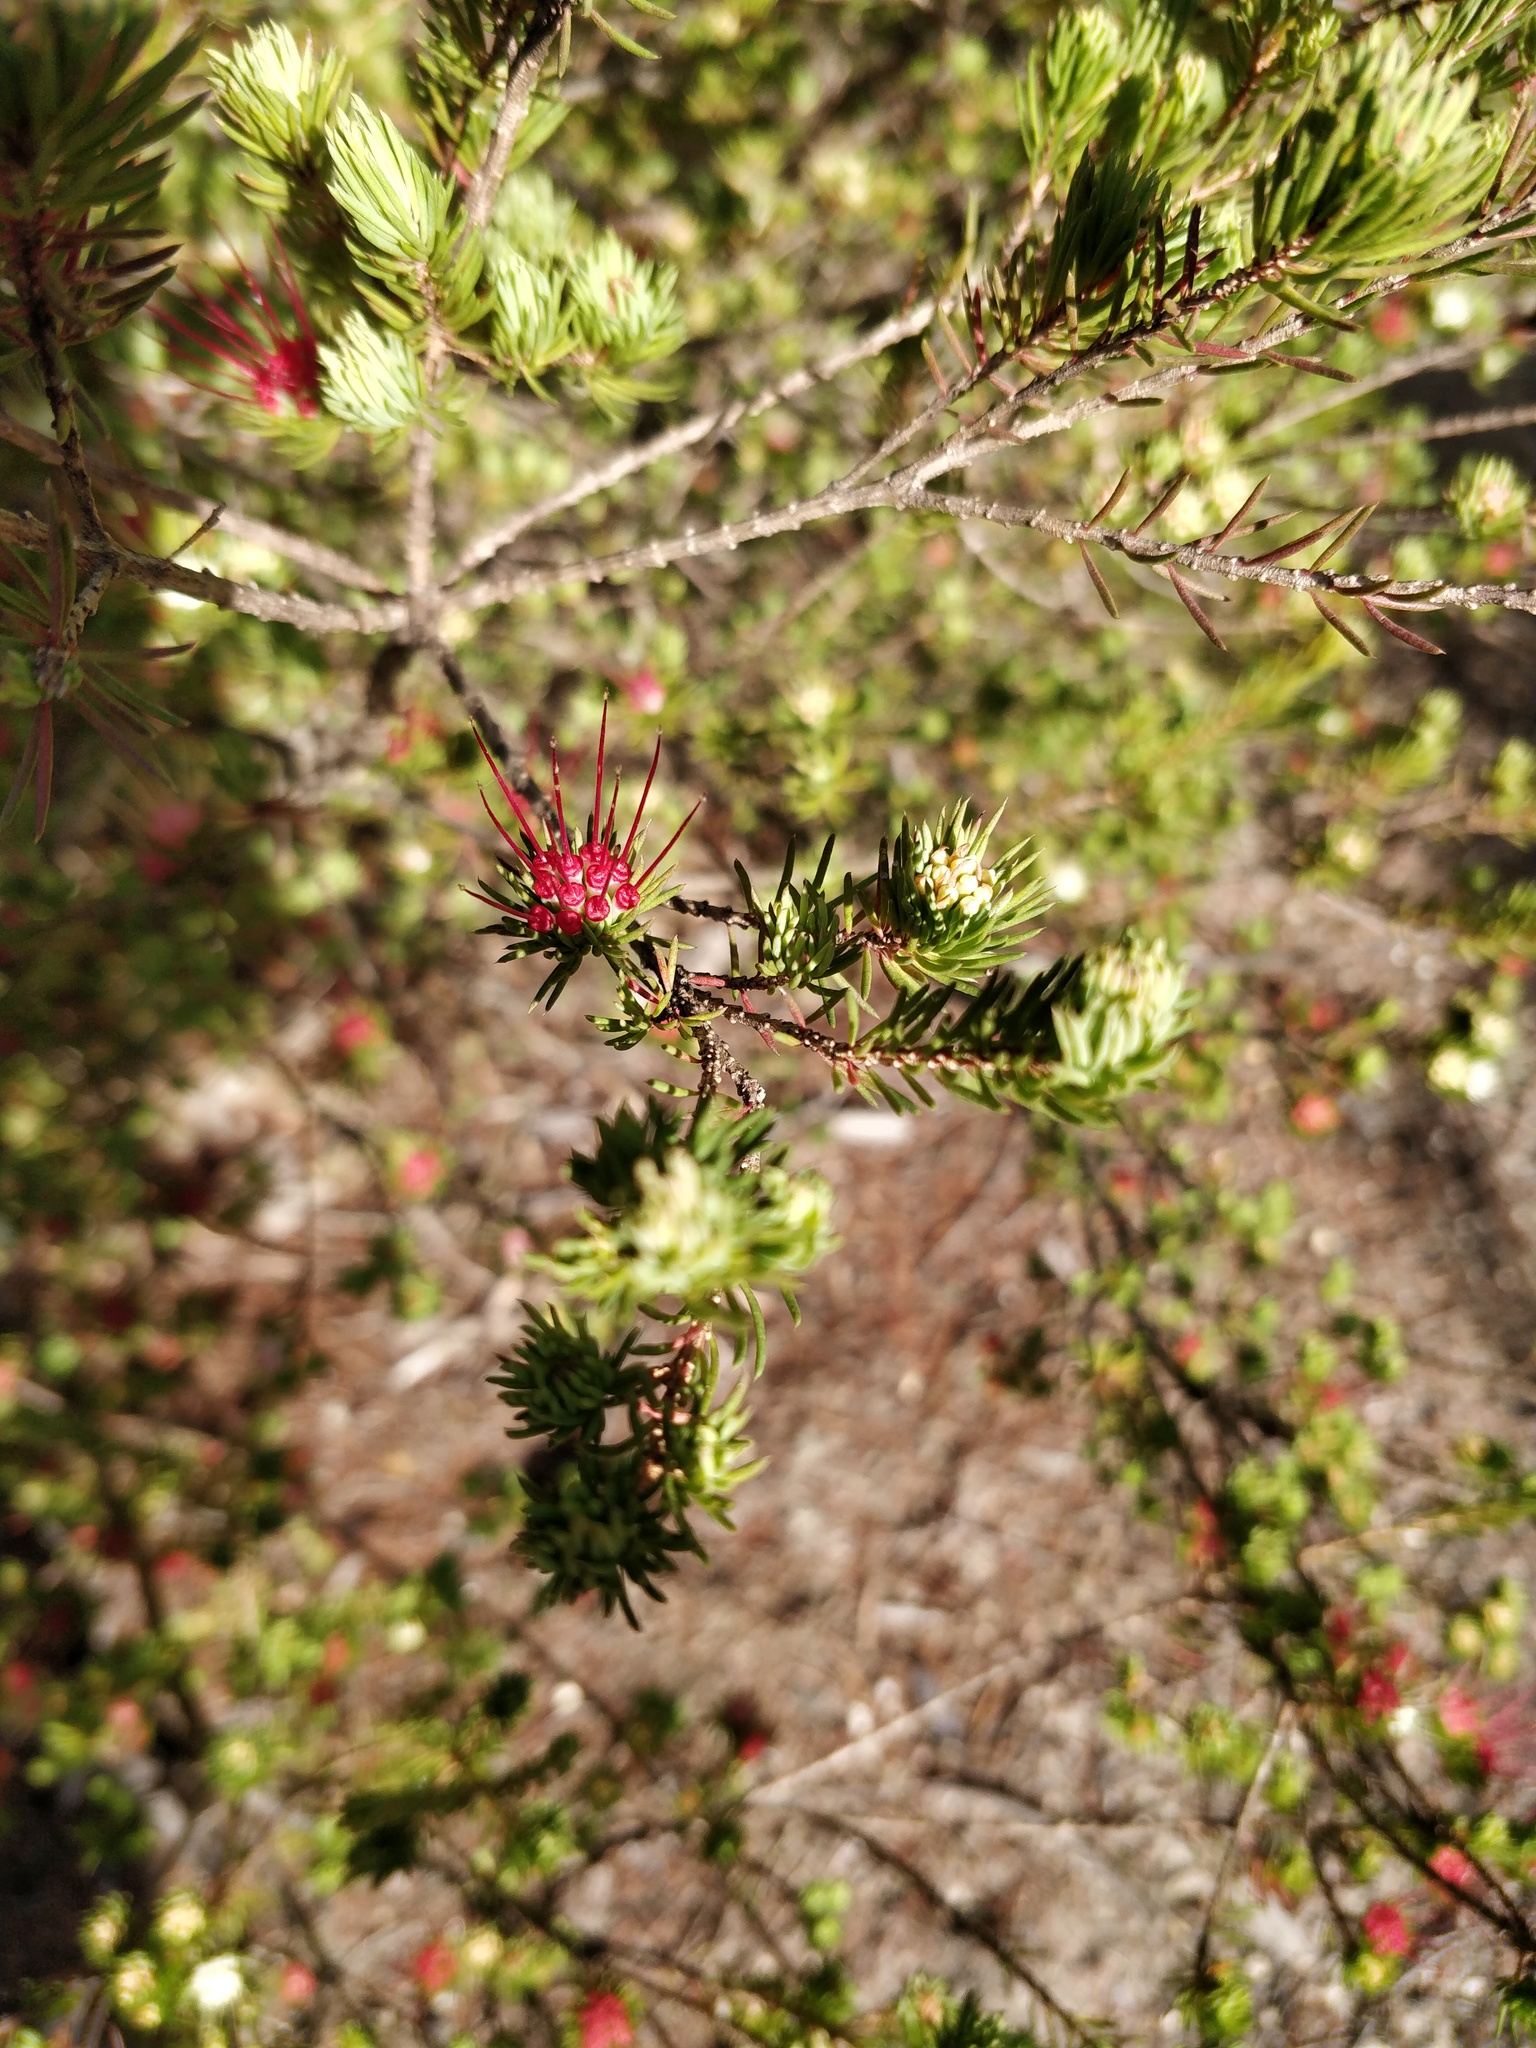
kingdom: Plantae
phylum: Tracheophyta
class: Magnoliopsida
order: Myrtales
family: Myrtaceae
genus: Darwinia
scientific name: Darwinia fascicularis
